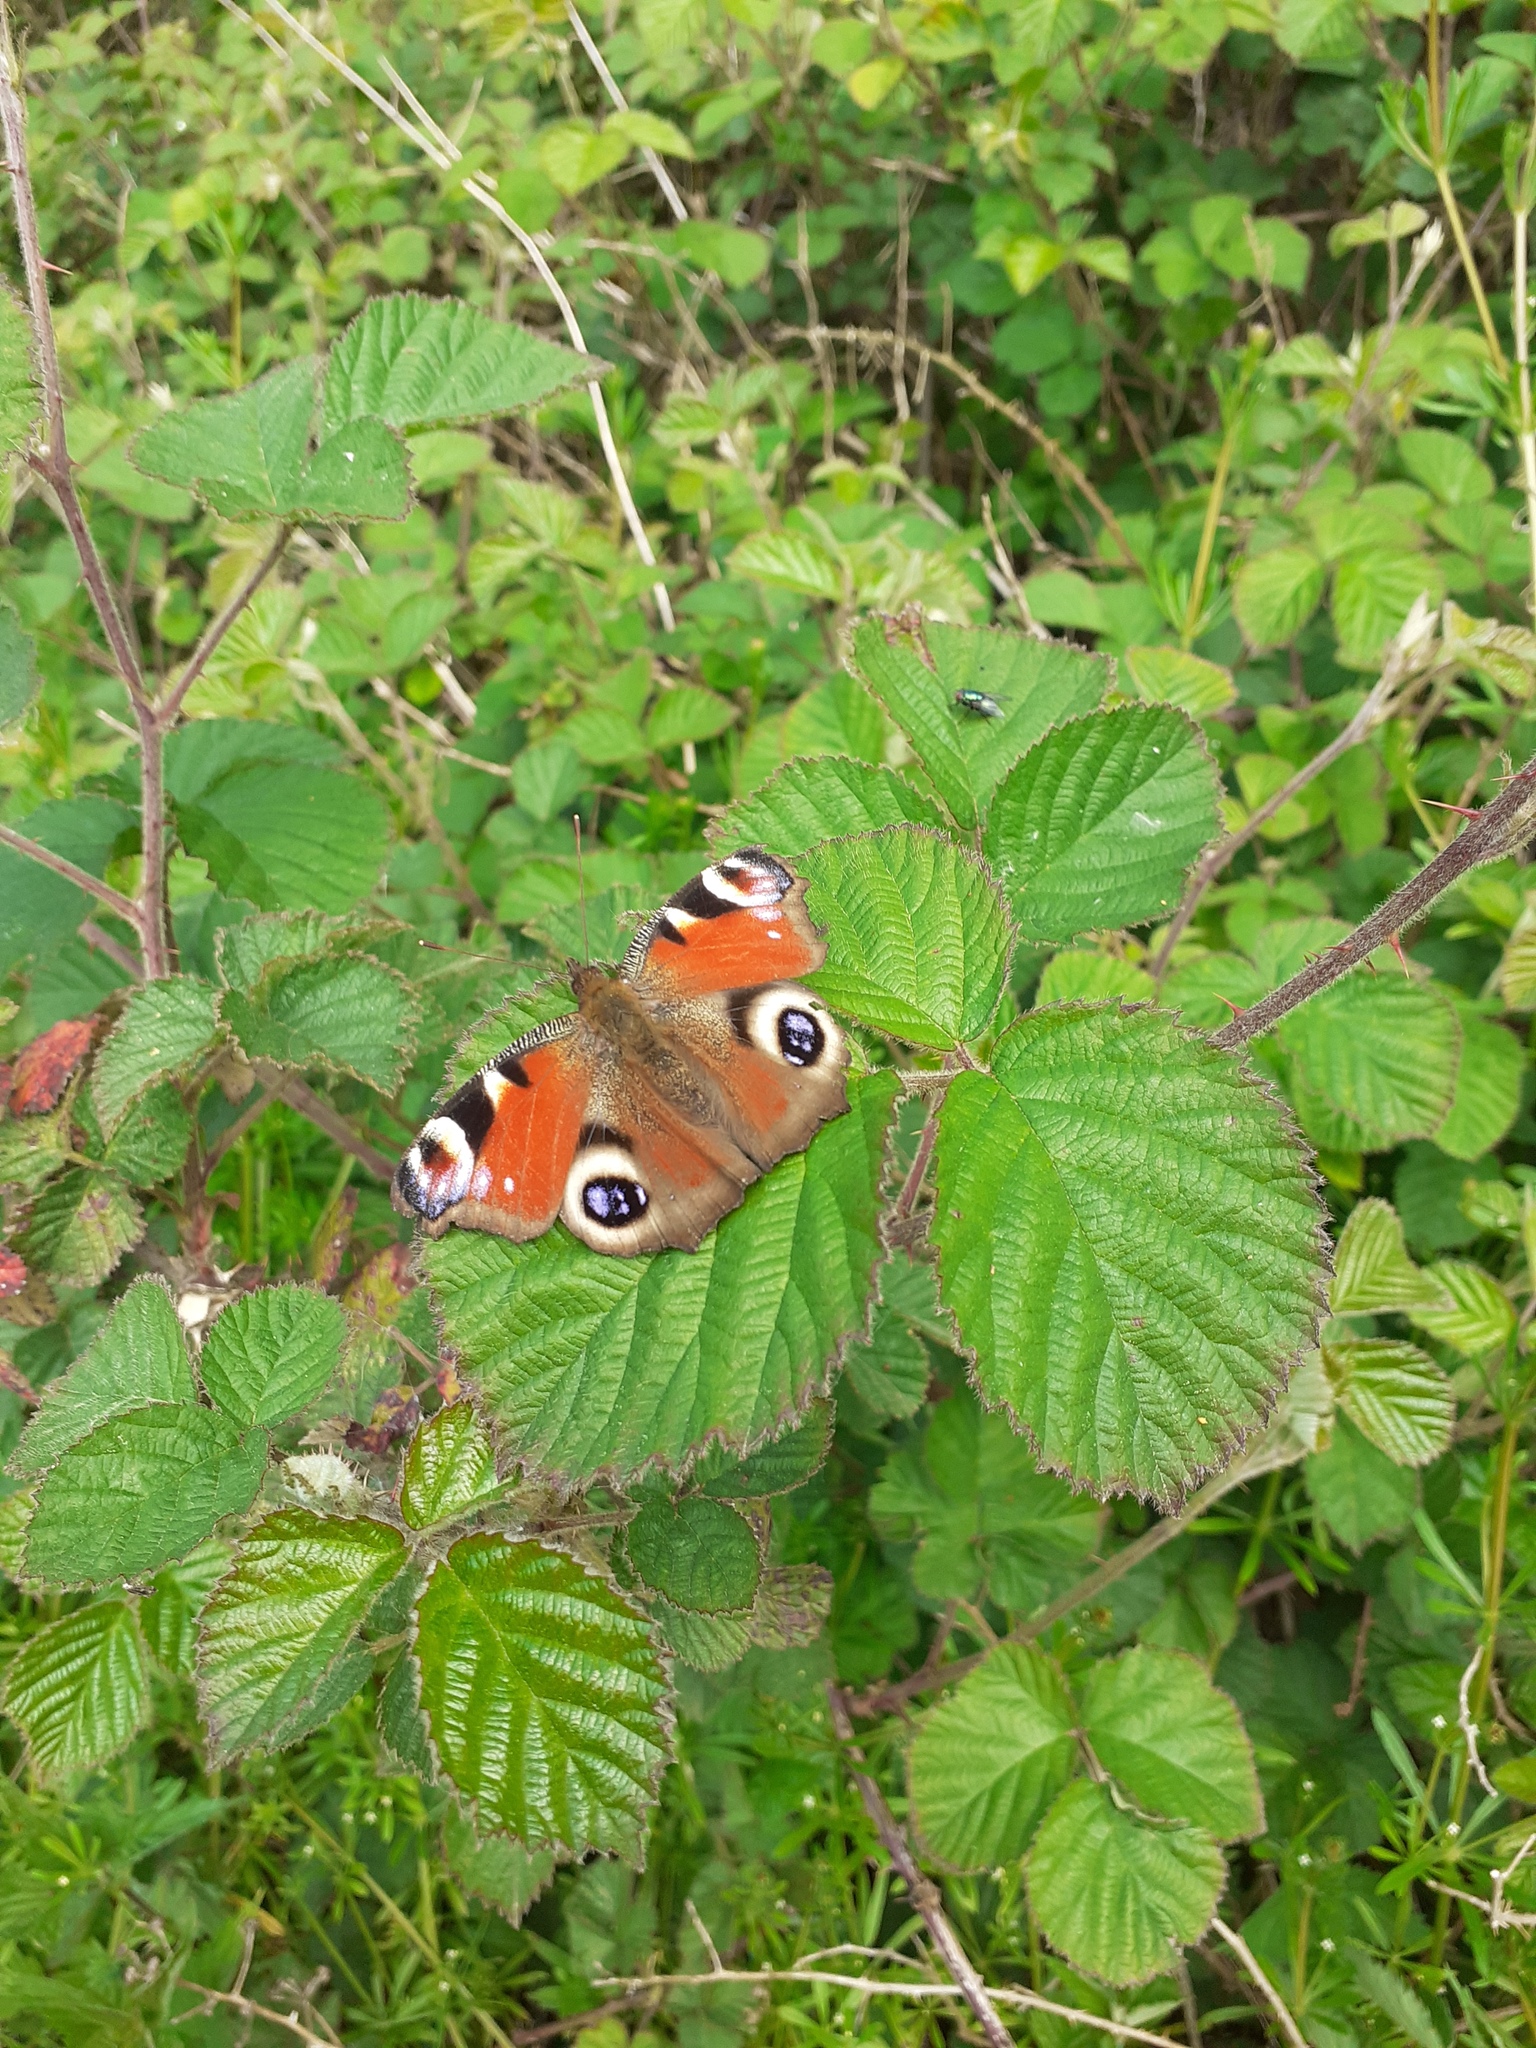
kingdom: Animalia
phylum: Arthropoda
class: Insecta
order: Lepidoptera
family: Nymphalidae
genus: Aglais
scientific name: Aglais io
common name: Peacock
